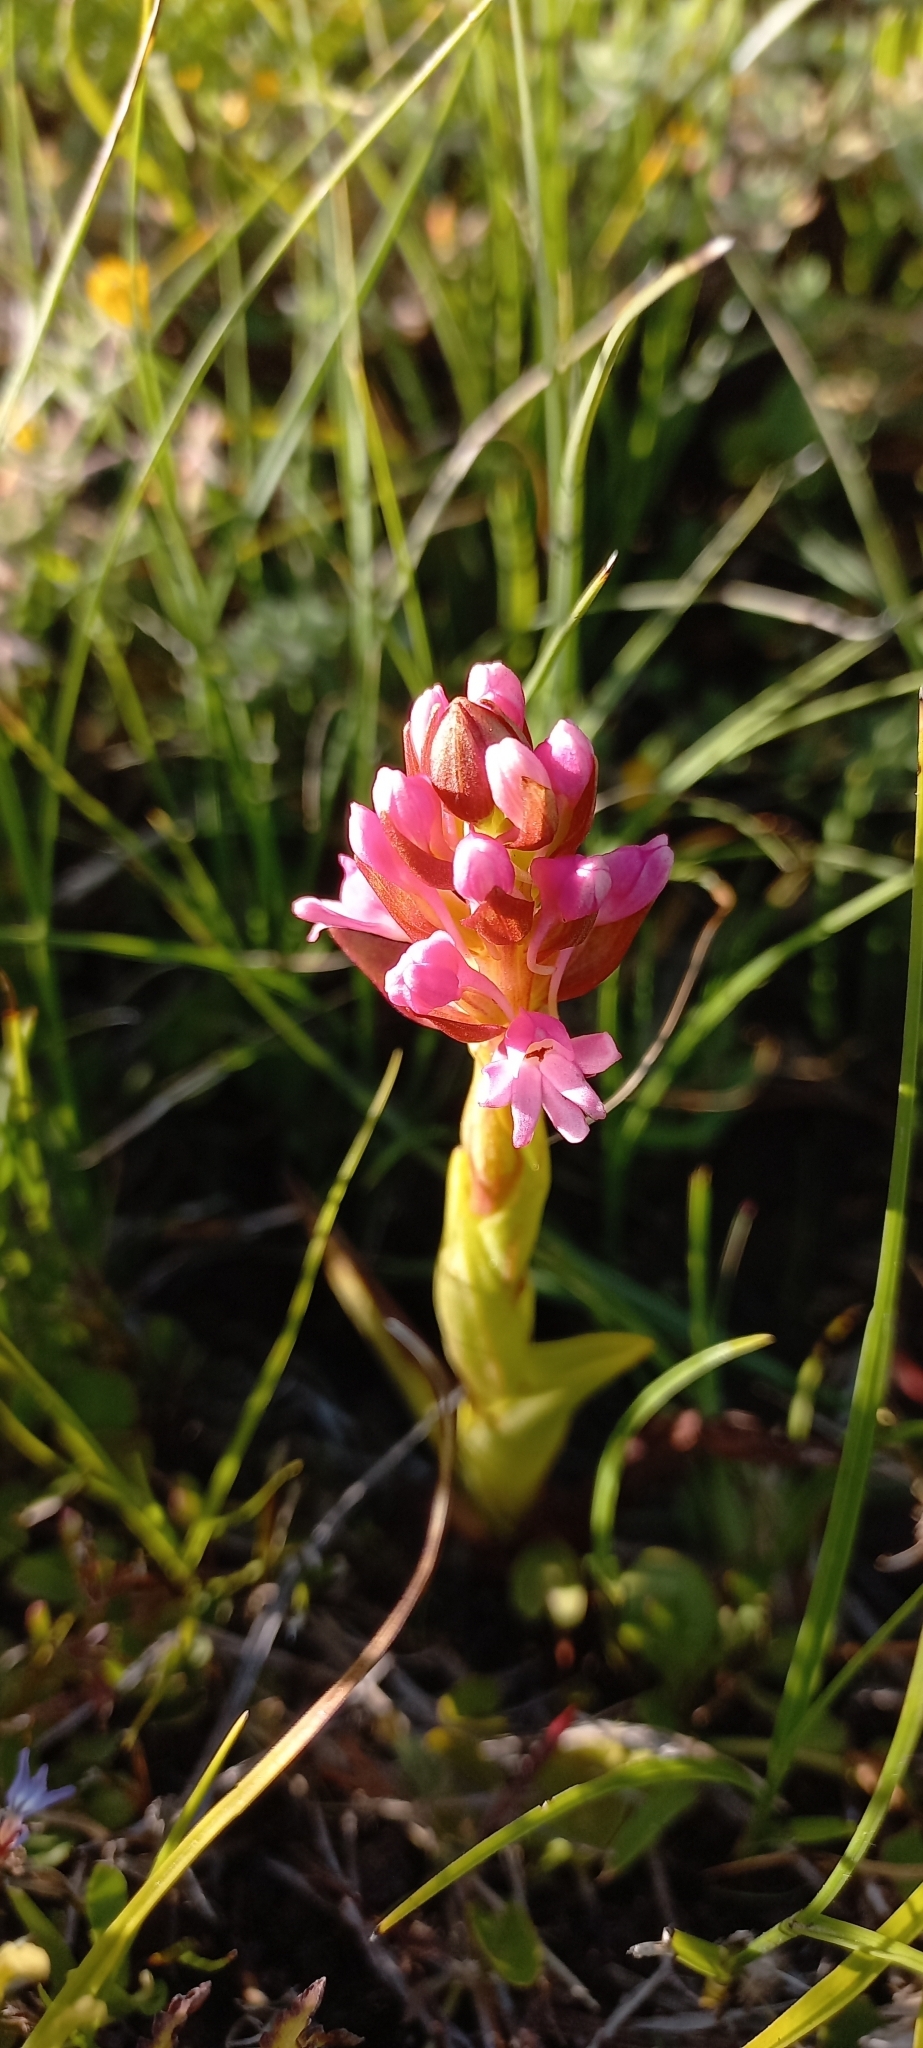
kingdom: Plantae
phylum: Tracheophyta
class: Liliopsida
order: Asparagales
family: Orchidaceae
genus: Satyrium
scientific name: Satyrium hallackii
